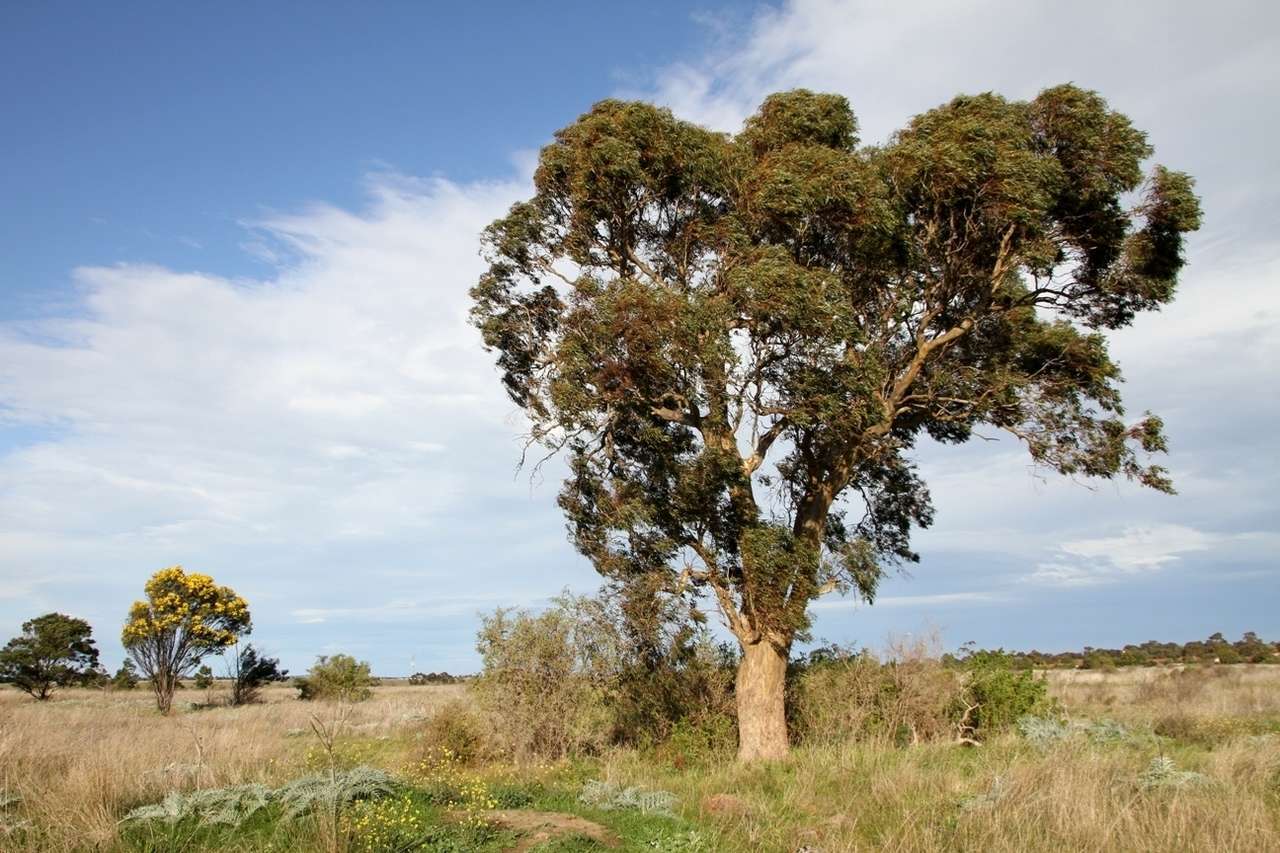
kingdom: Plantae
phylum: Tracheophyta
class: Magnoliopsida
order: Myrtales
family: Myrtaceae
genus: Eucalyptus
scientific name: Eucalyptus leucoxylon
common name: Blue gum
